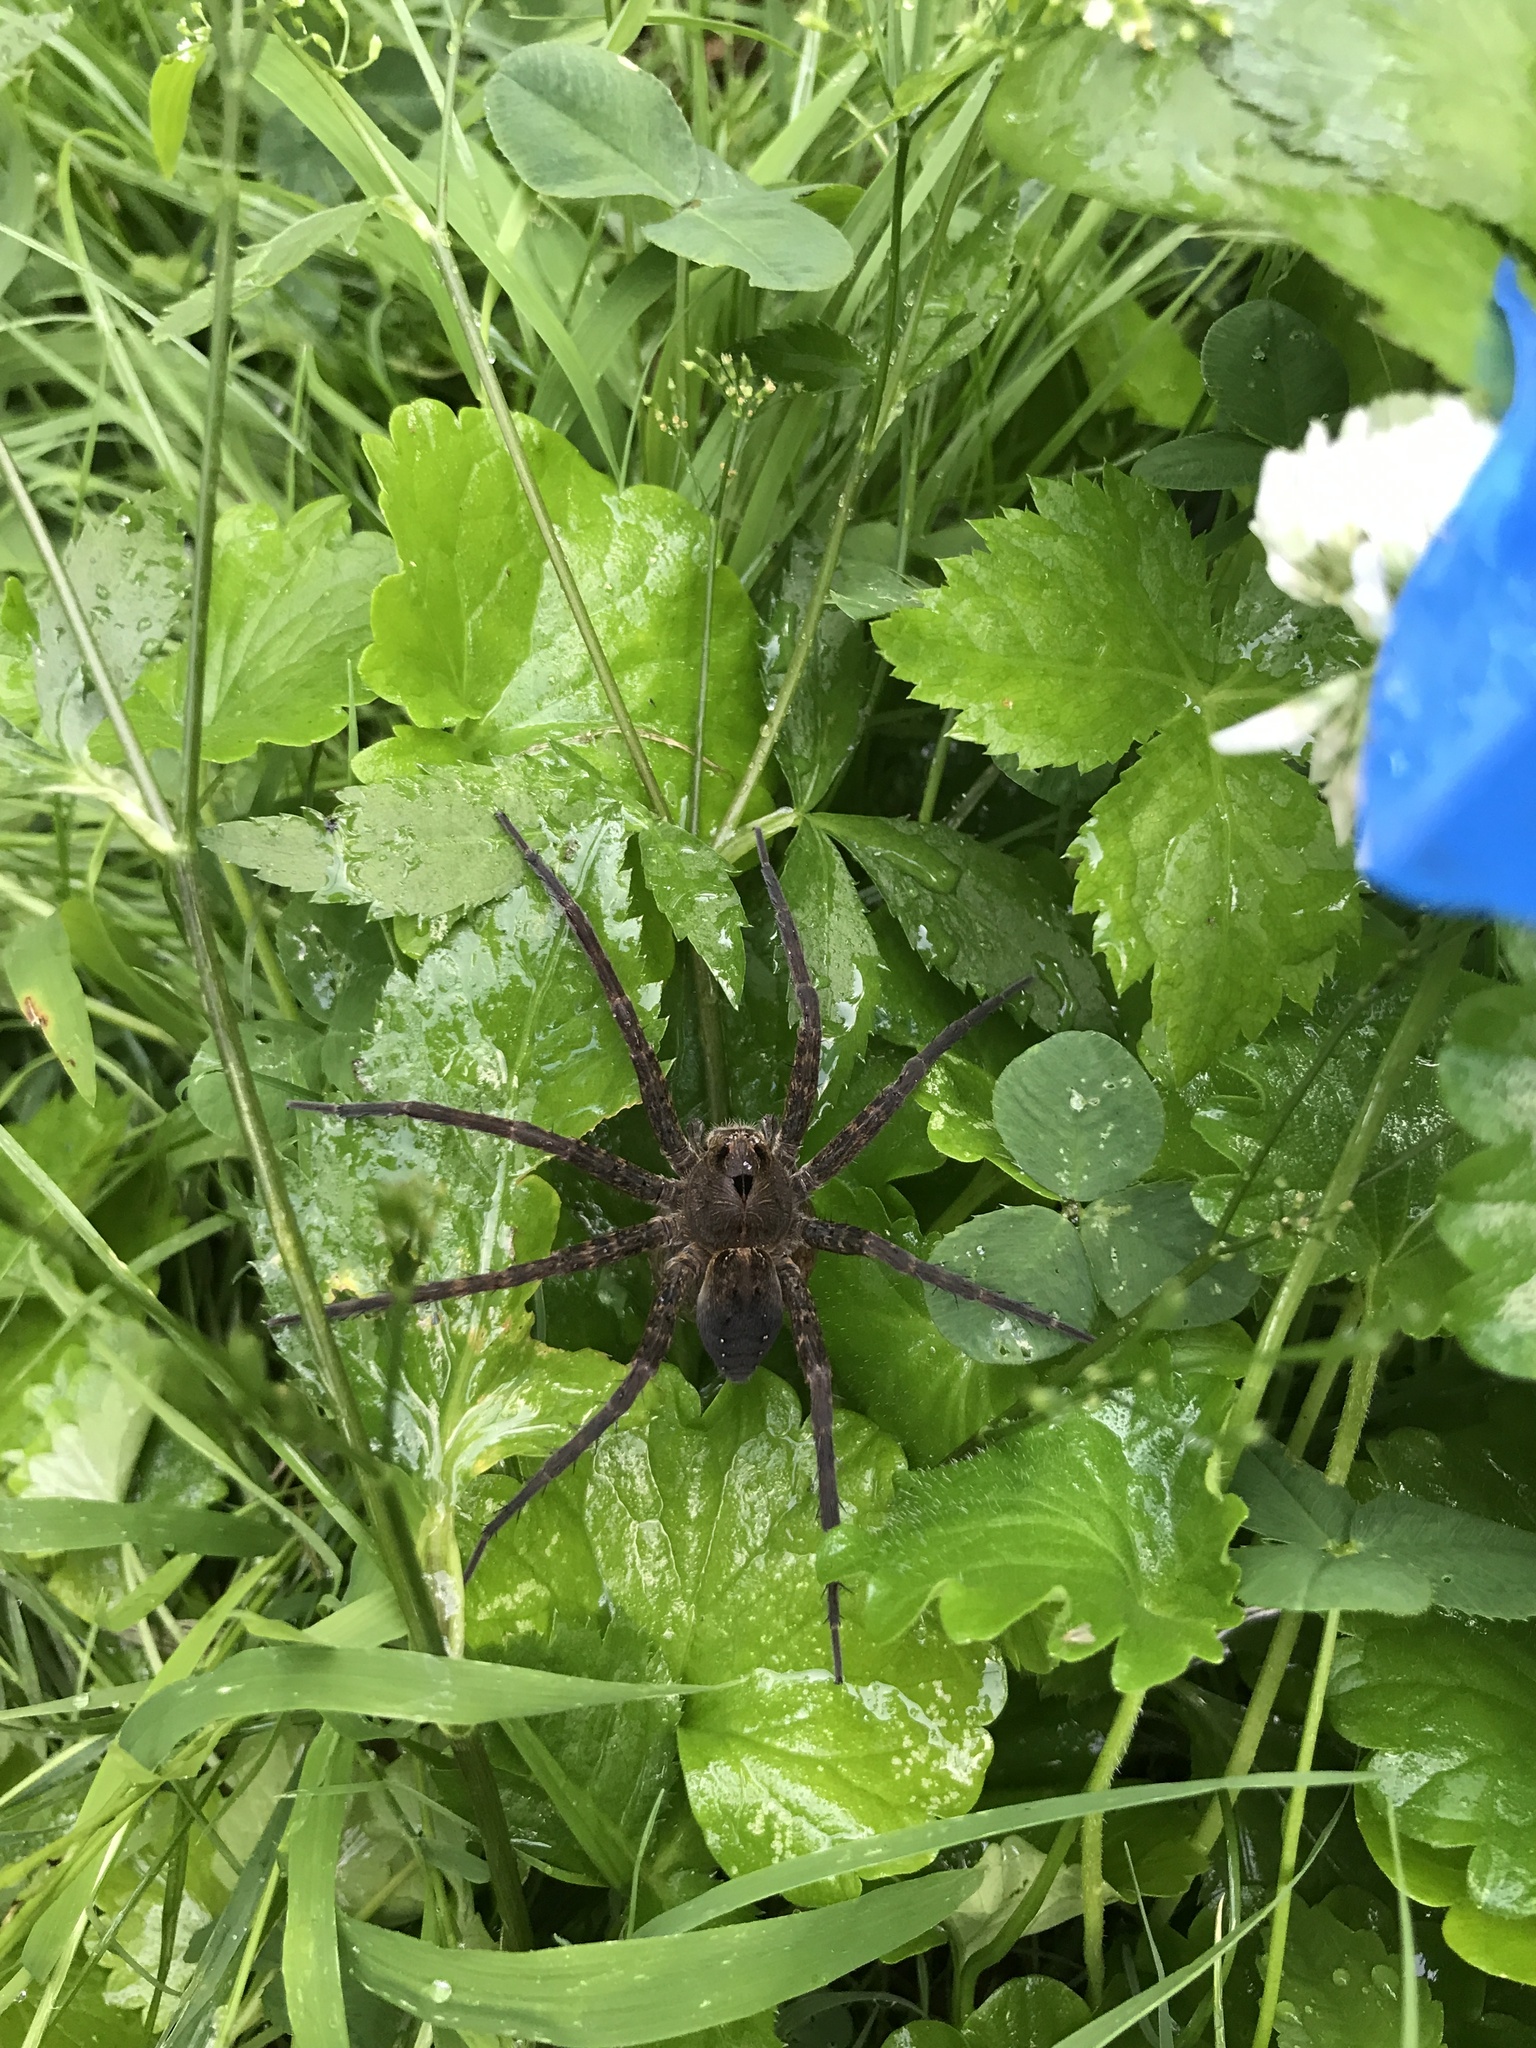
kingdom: Animalia
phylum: Arthropoda
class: Arachnida
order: Araneae
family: Pisauridae
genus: Dolomedes
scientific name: Dolomedes vittatus
